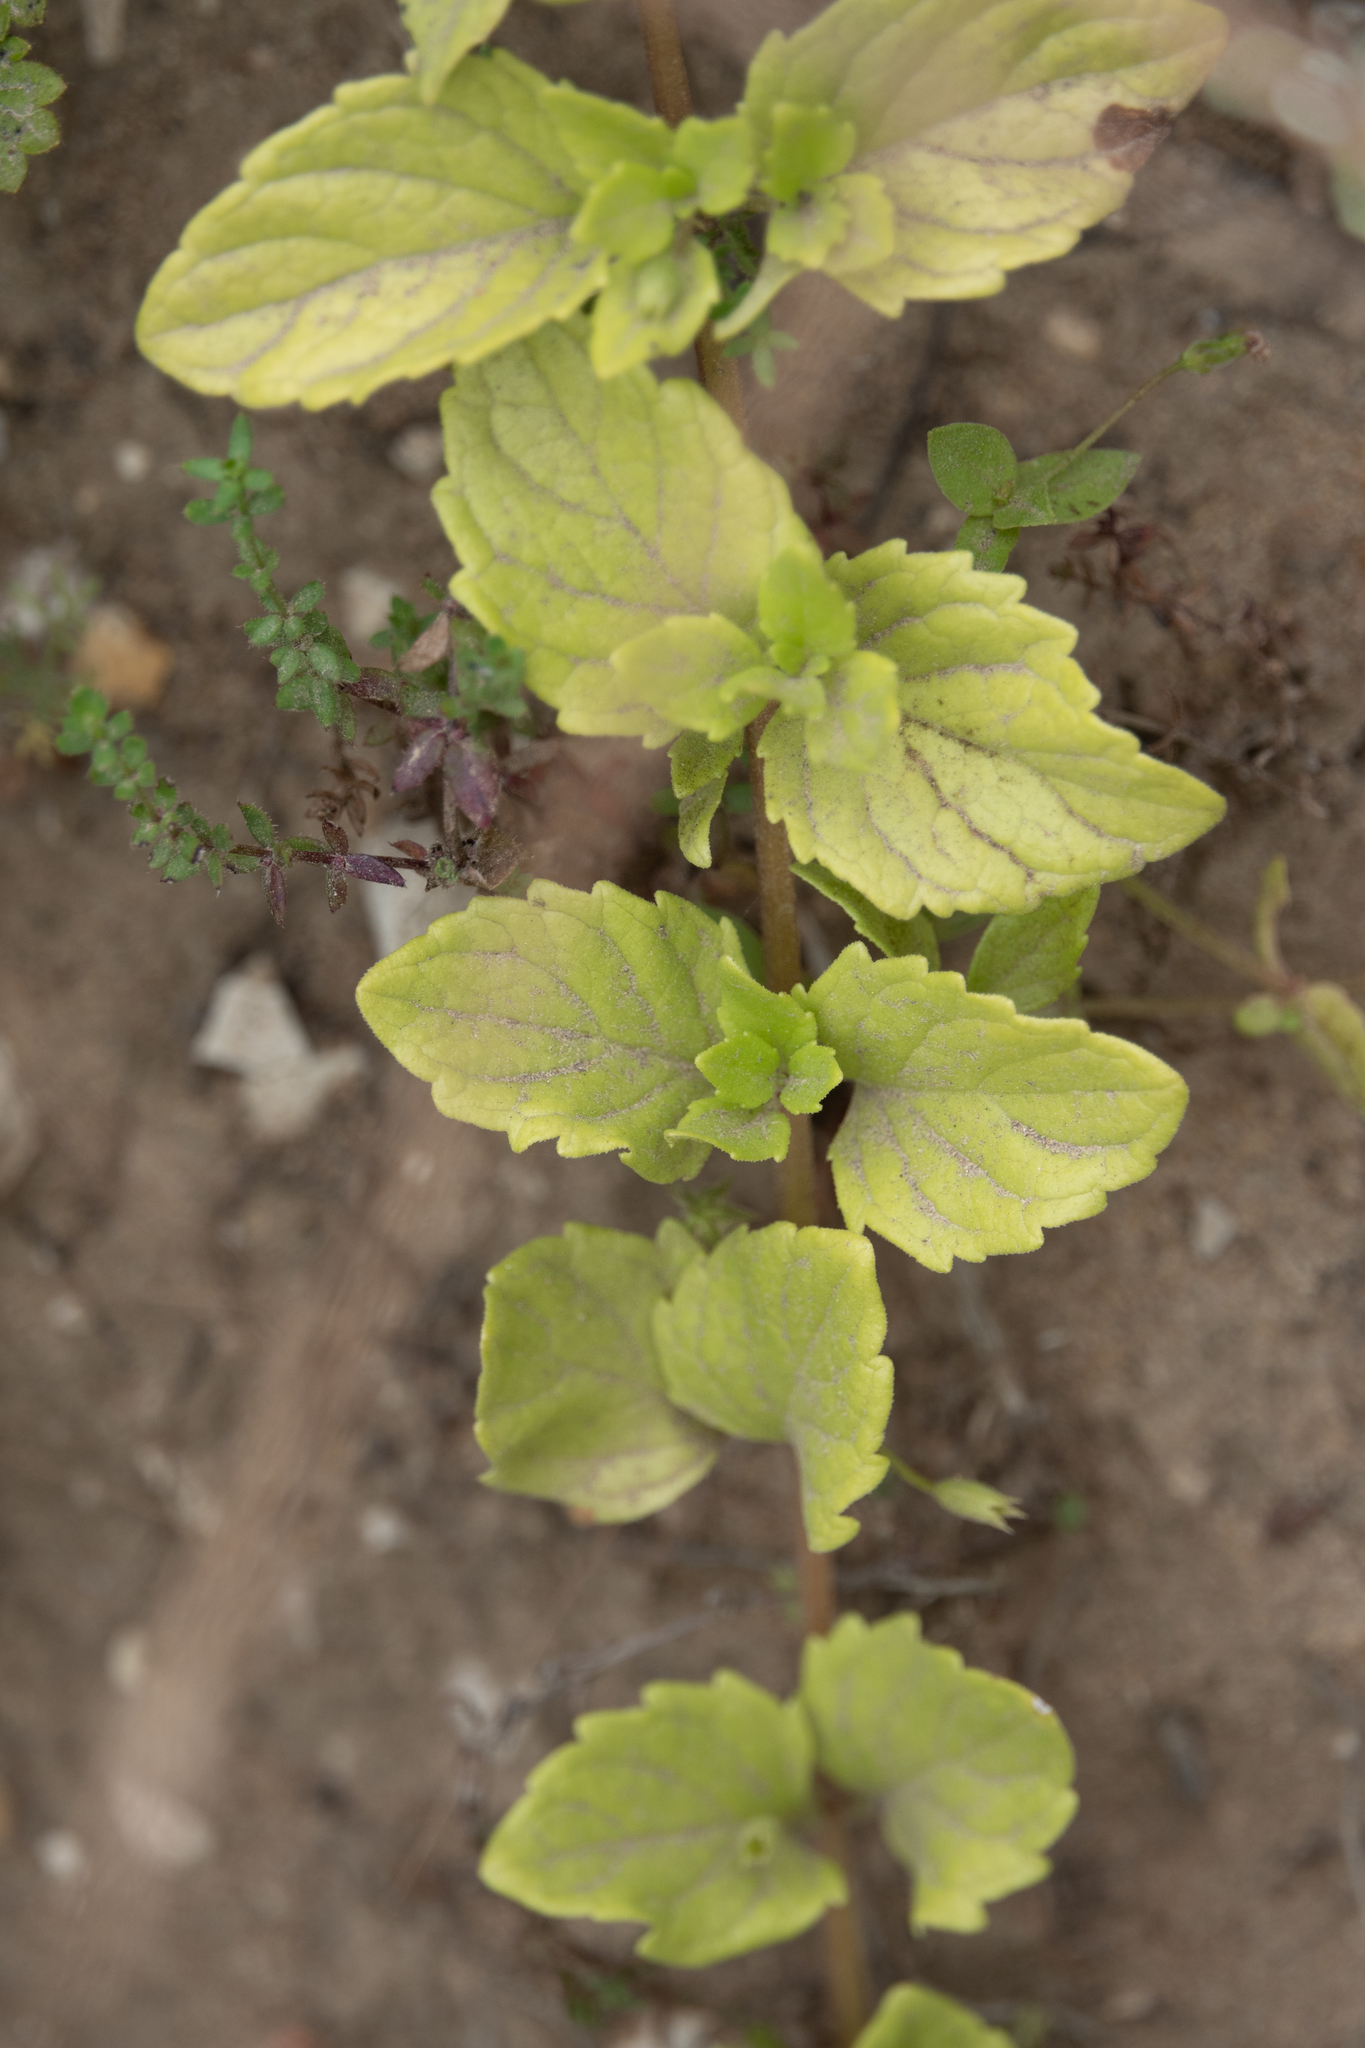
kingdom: Plantae
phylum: Tracheophyta
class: Magnoliopsida
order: Lamiales
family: Lamiaceae
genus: Micromeria
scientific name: Micromeria douglasii
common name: Yerba buena
